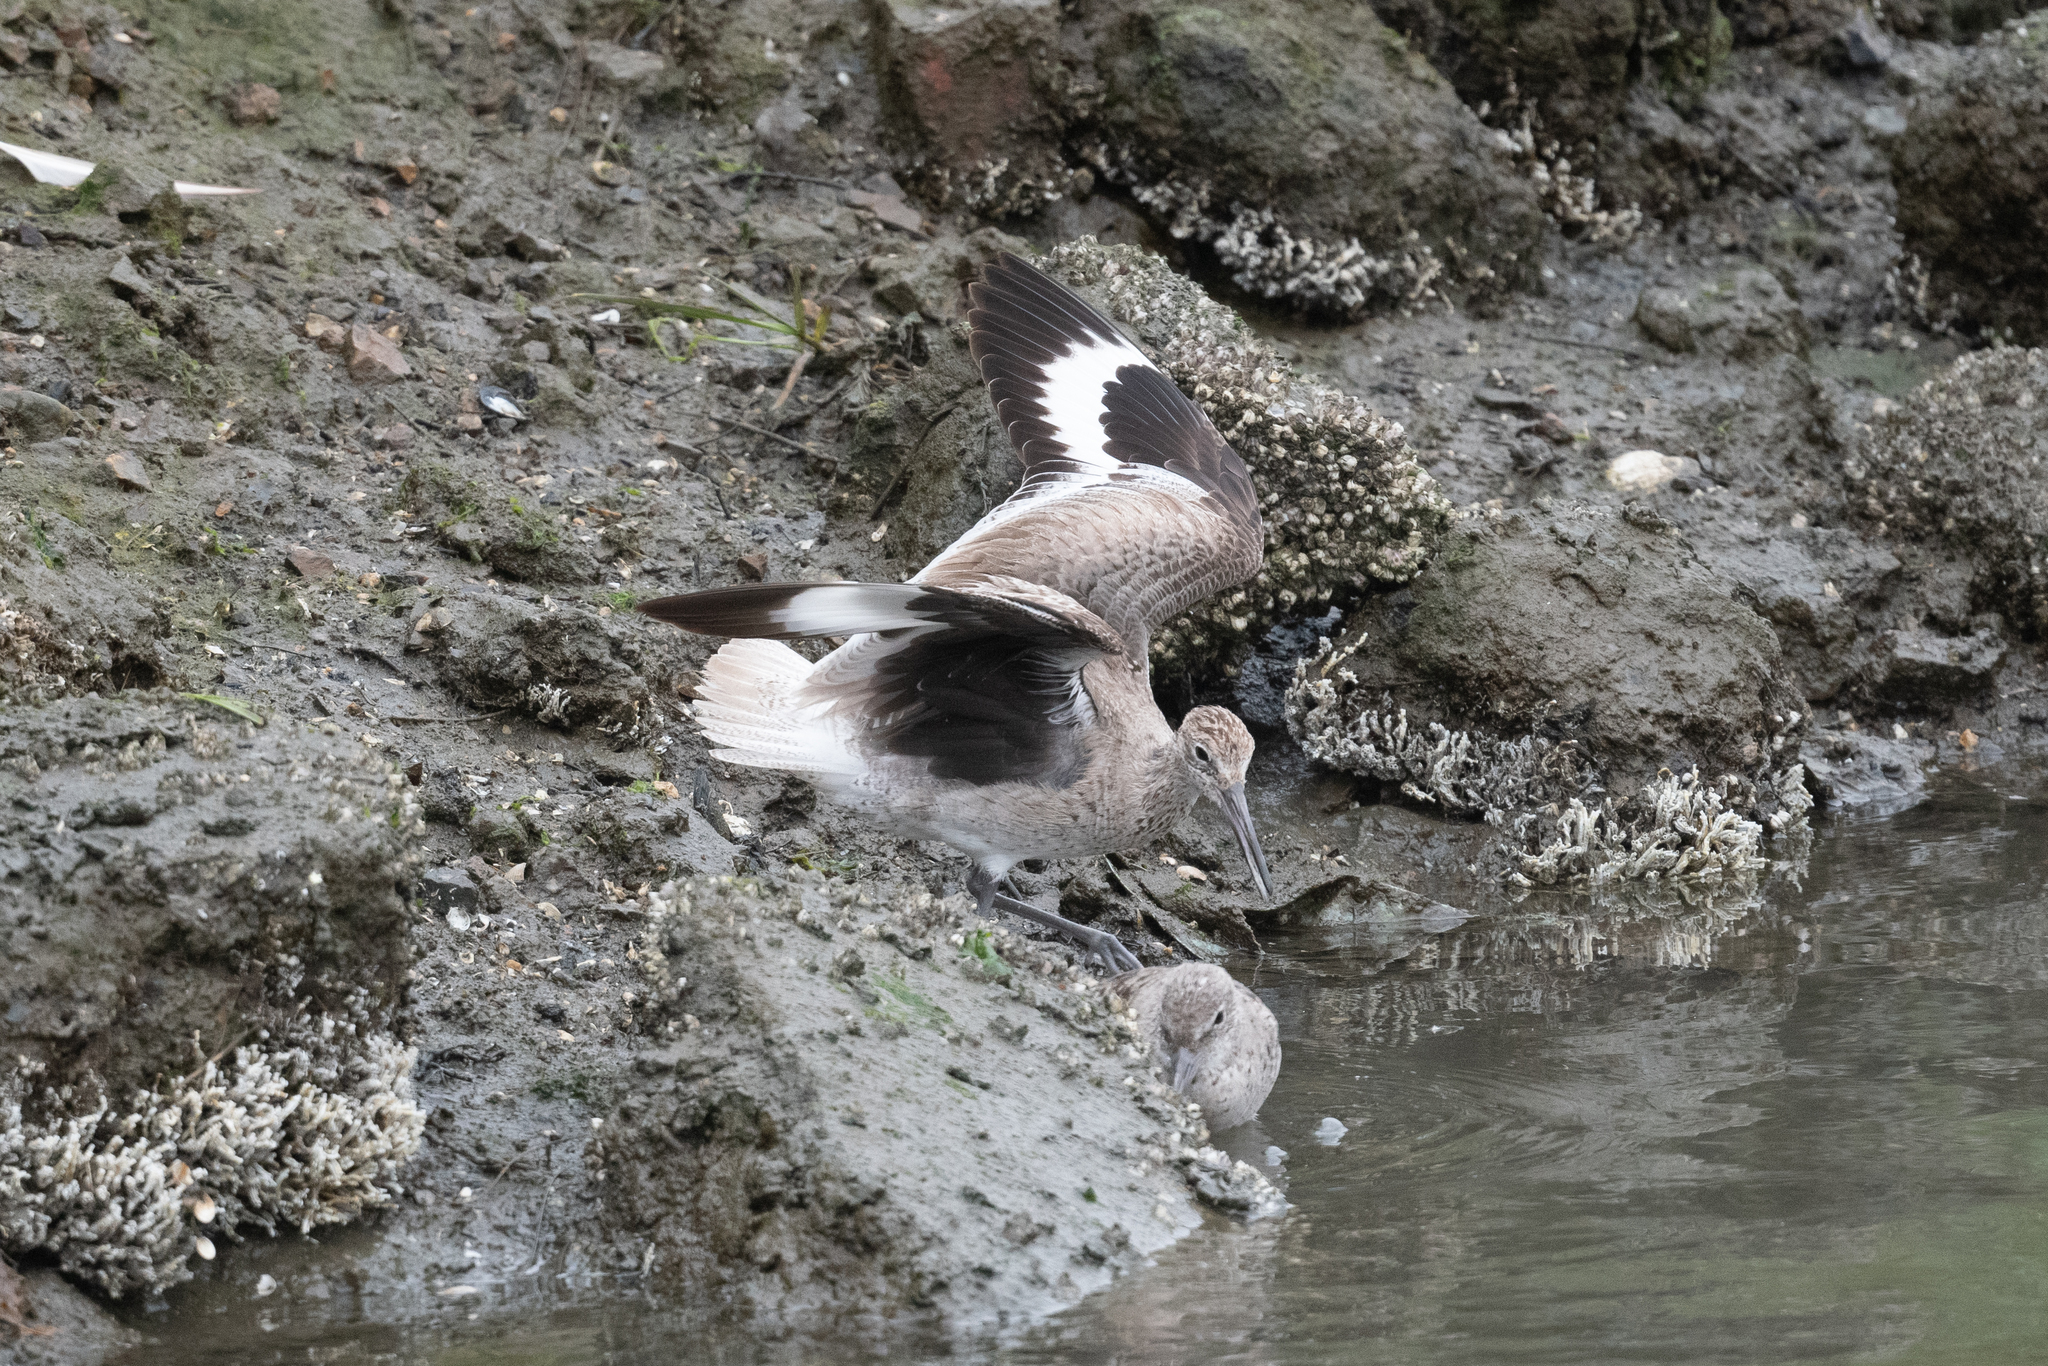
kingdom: Animalia
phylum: Chordata
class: Aves
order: Charadriiformes
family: Scolopacidae
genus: Tringa
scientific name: Tringa semipalmata
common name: Willet
